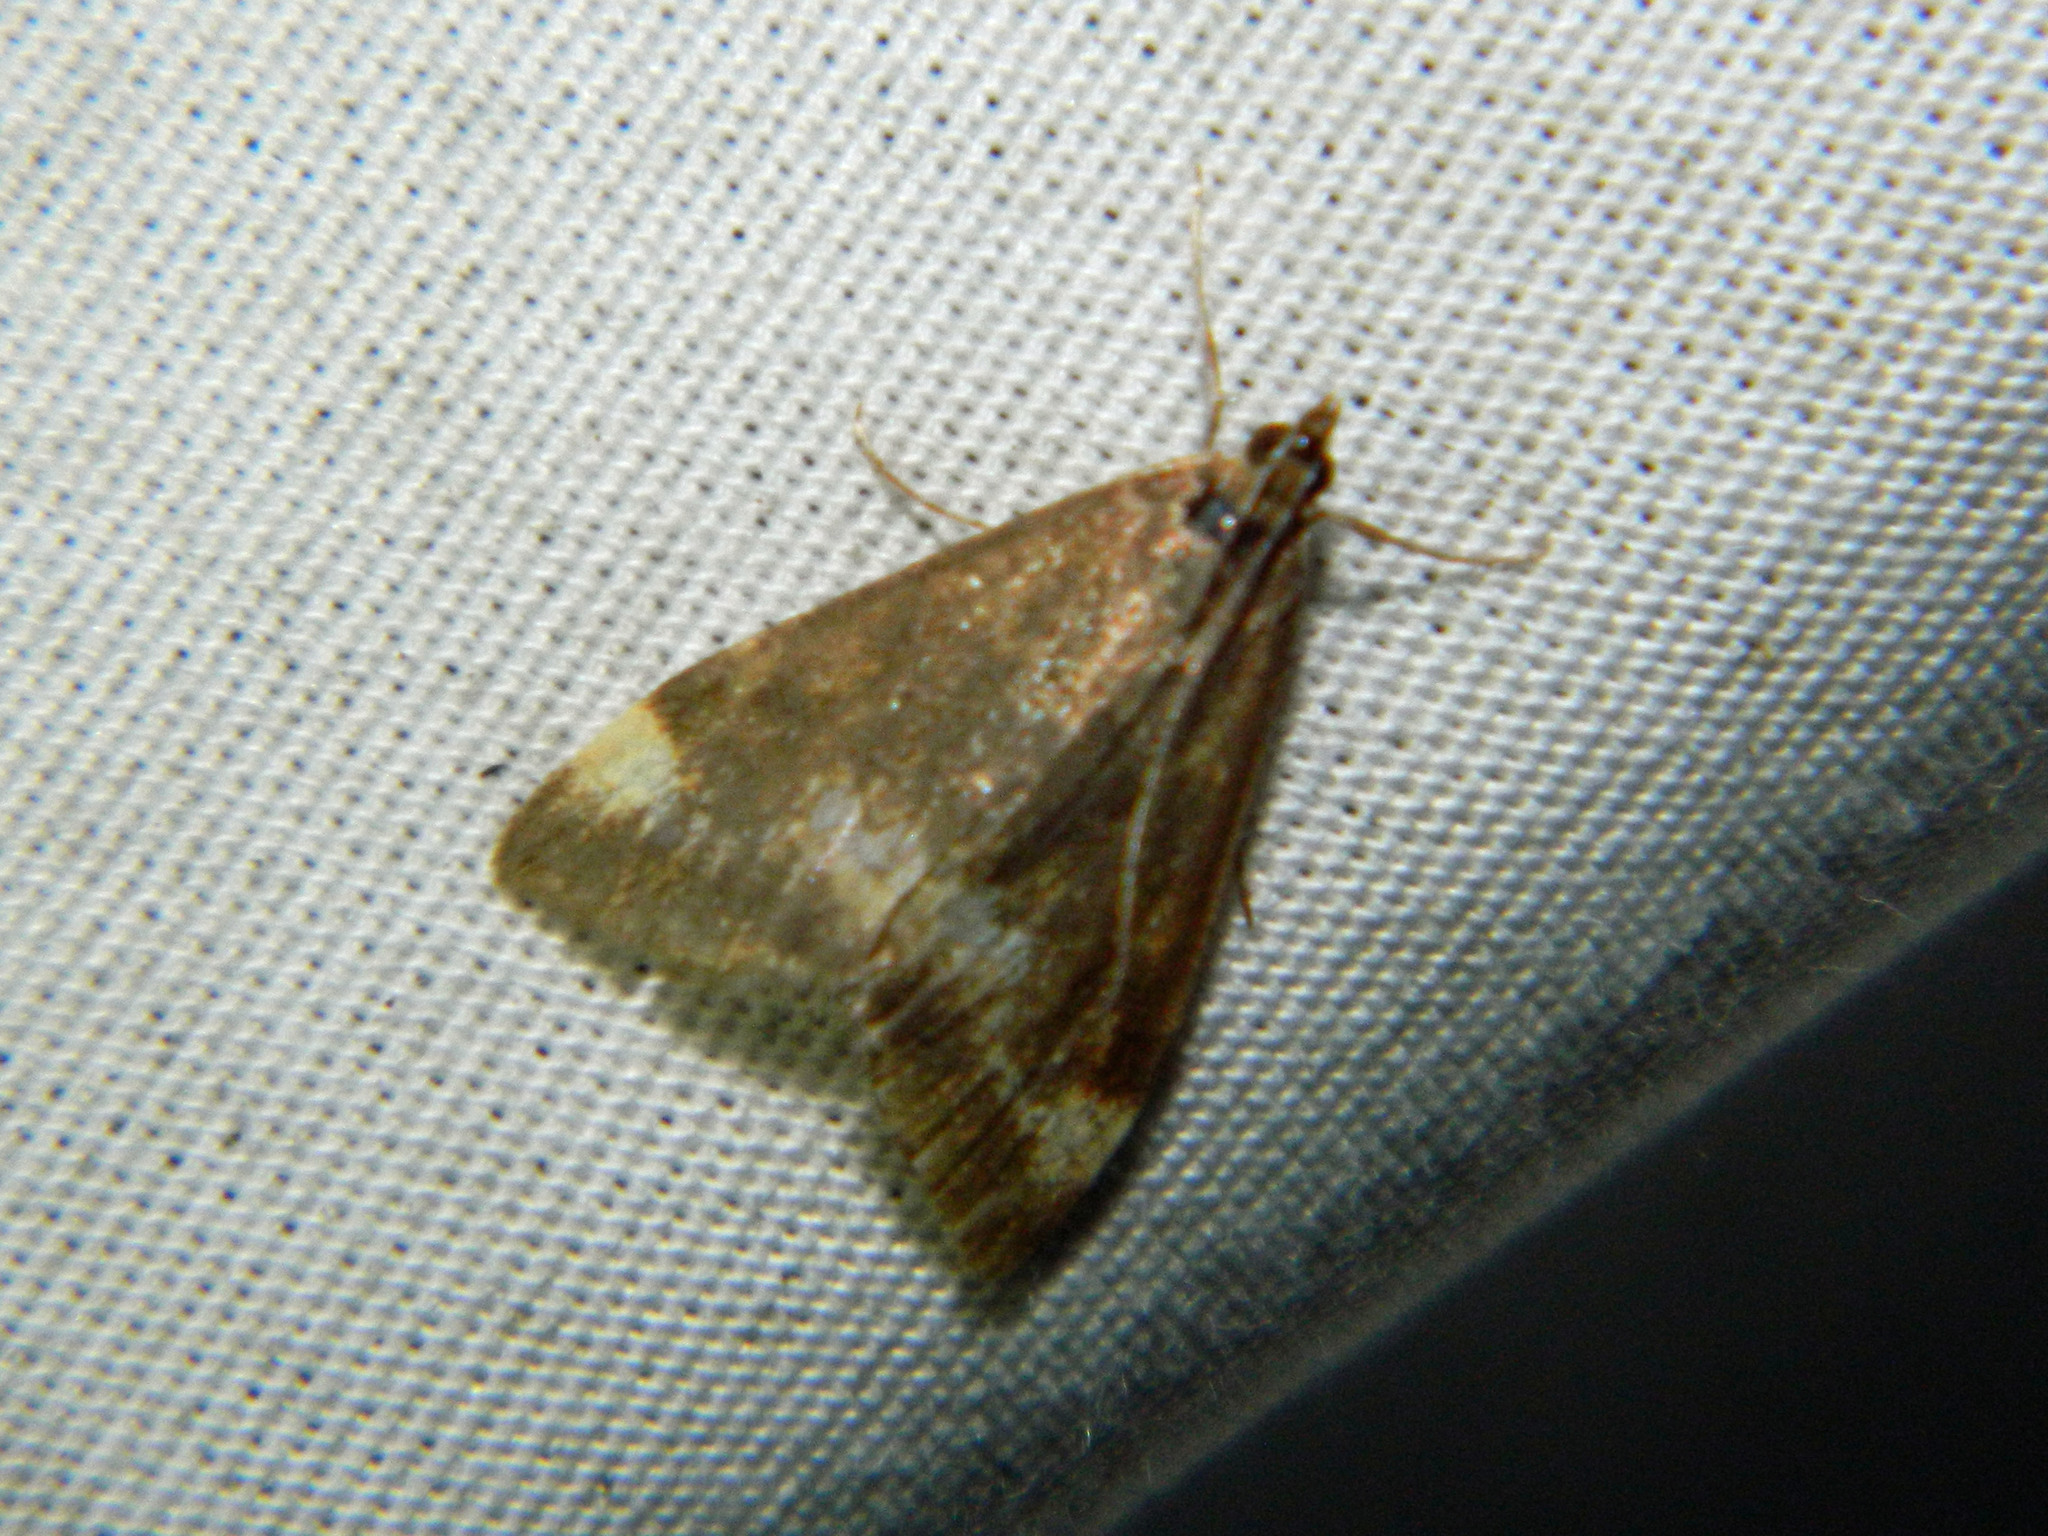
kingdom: Animalia
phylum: Arthropoda
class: Insecta
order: Lepidoptera
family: Crambidae
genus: Pyrausta
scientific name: Pyrausta nicalis
